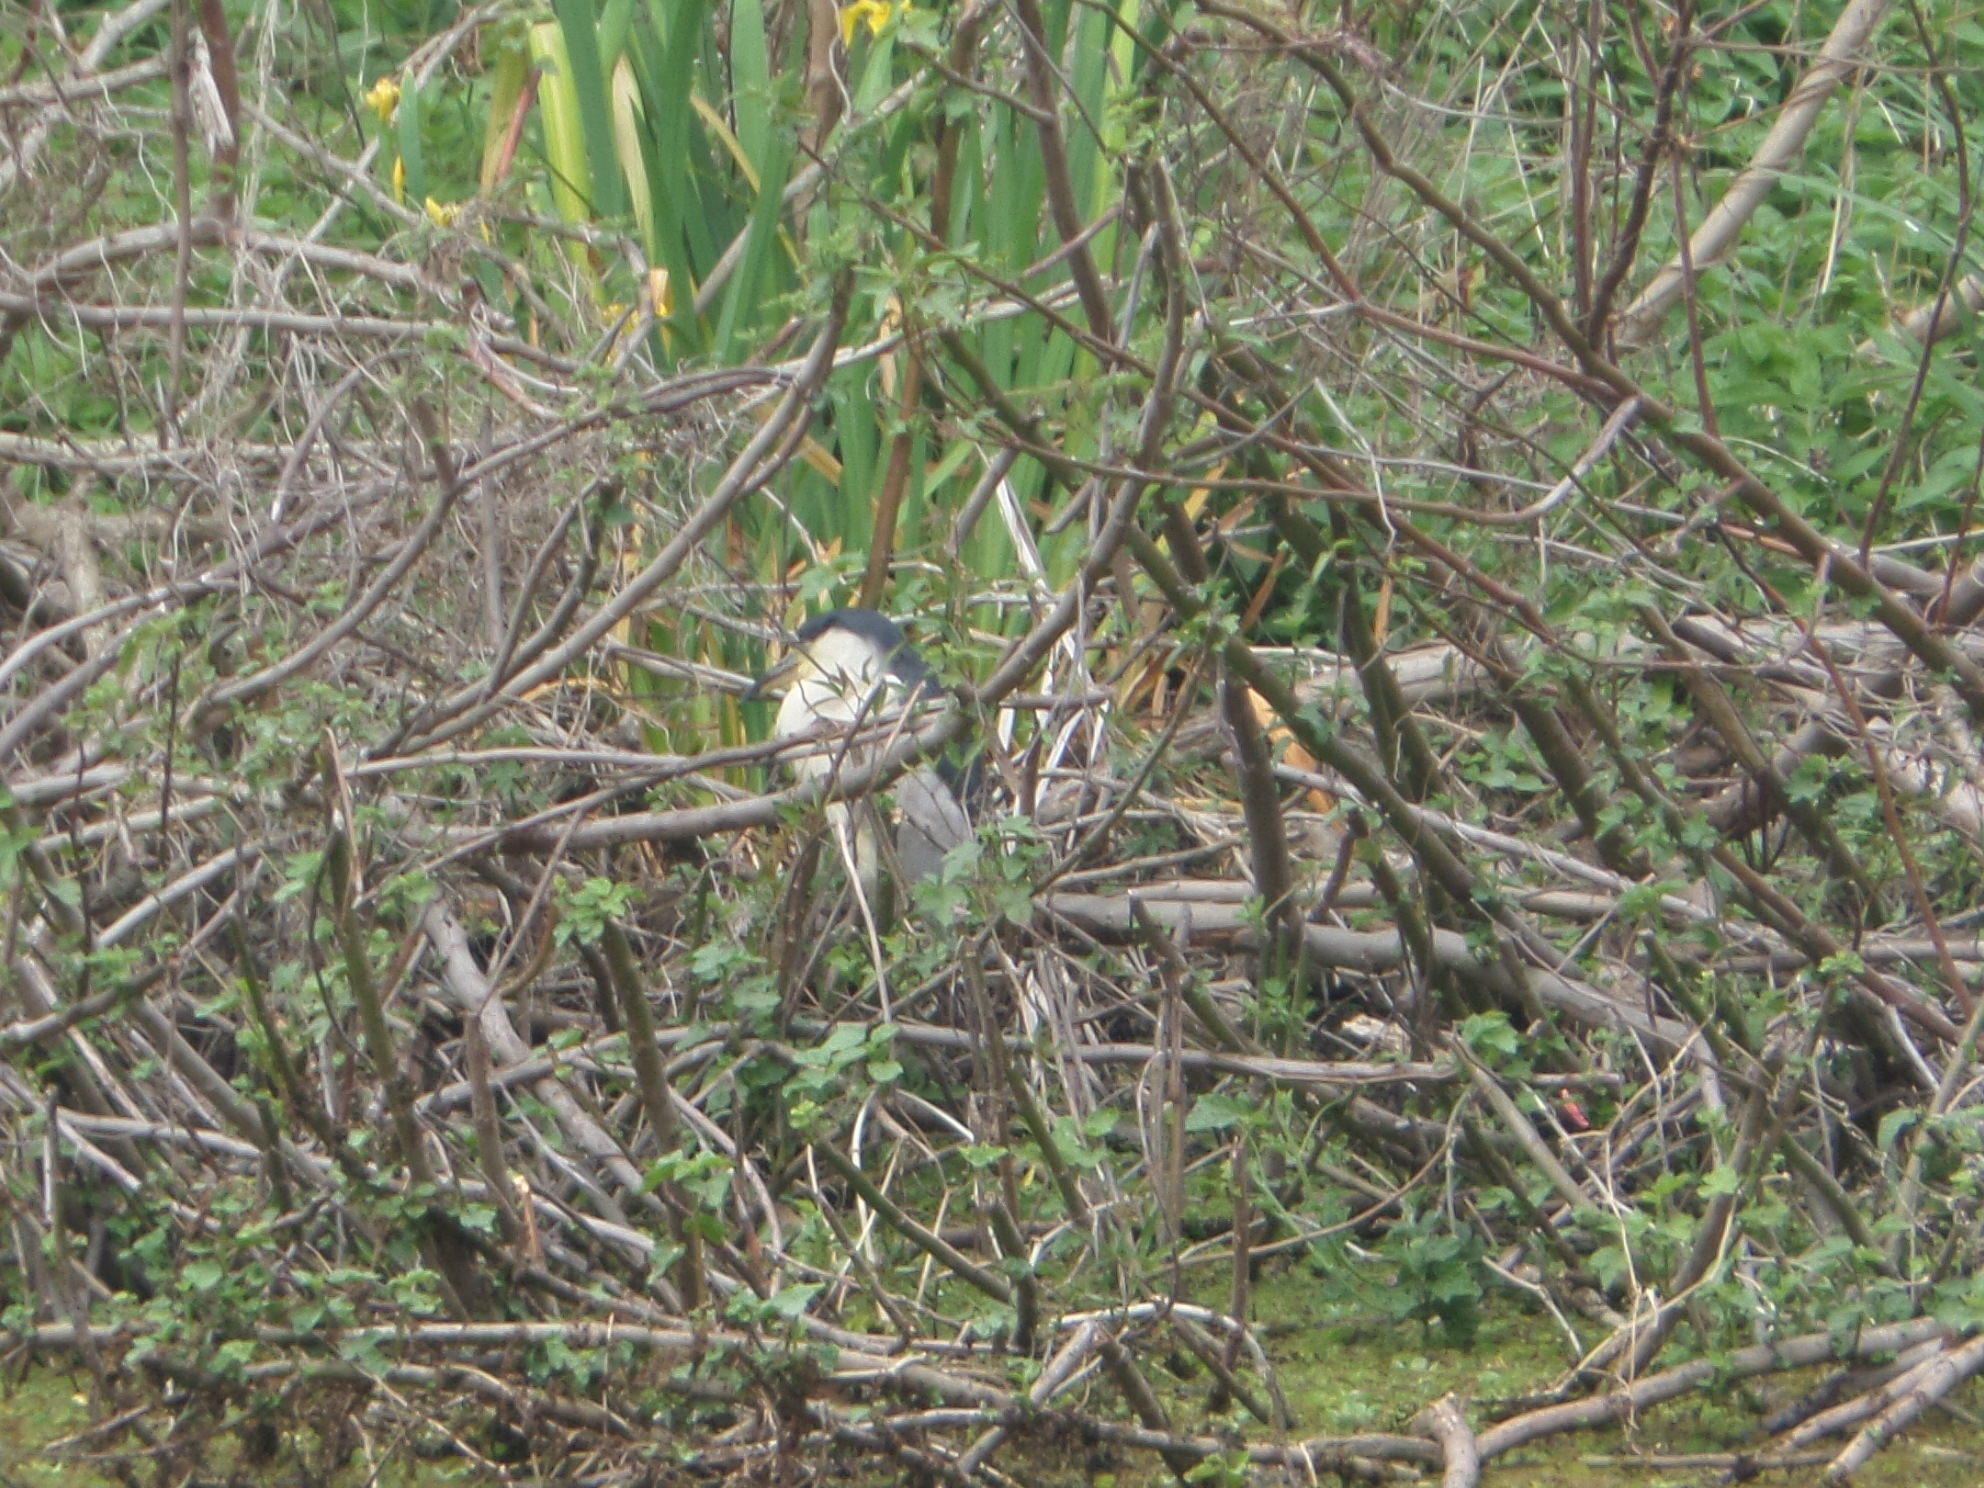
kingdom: Animalia
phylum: Chordata
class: Aves
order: Pelecaniformes
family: Ardeidae
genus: Nycticorax
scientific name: Nycticorax nycticorax
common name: Black-crowned night heron
